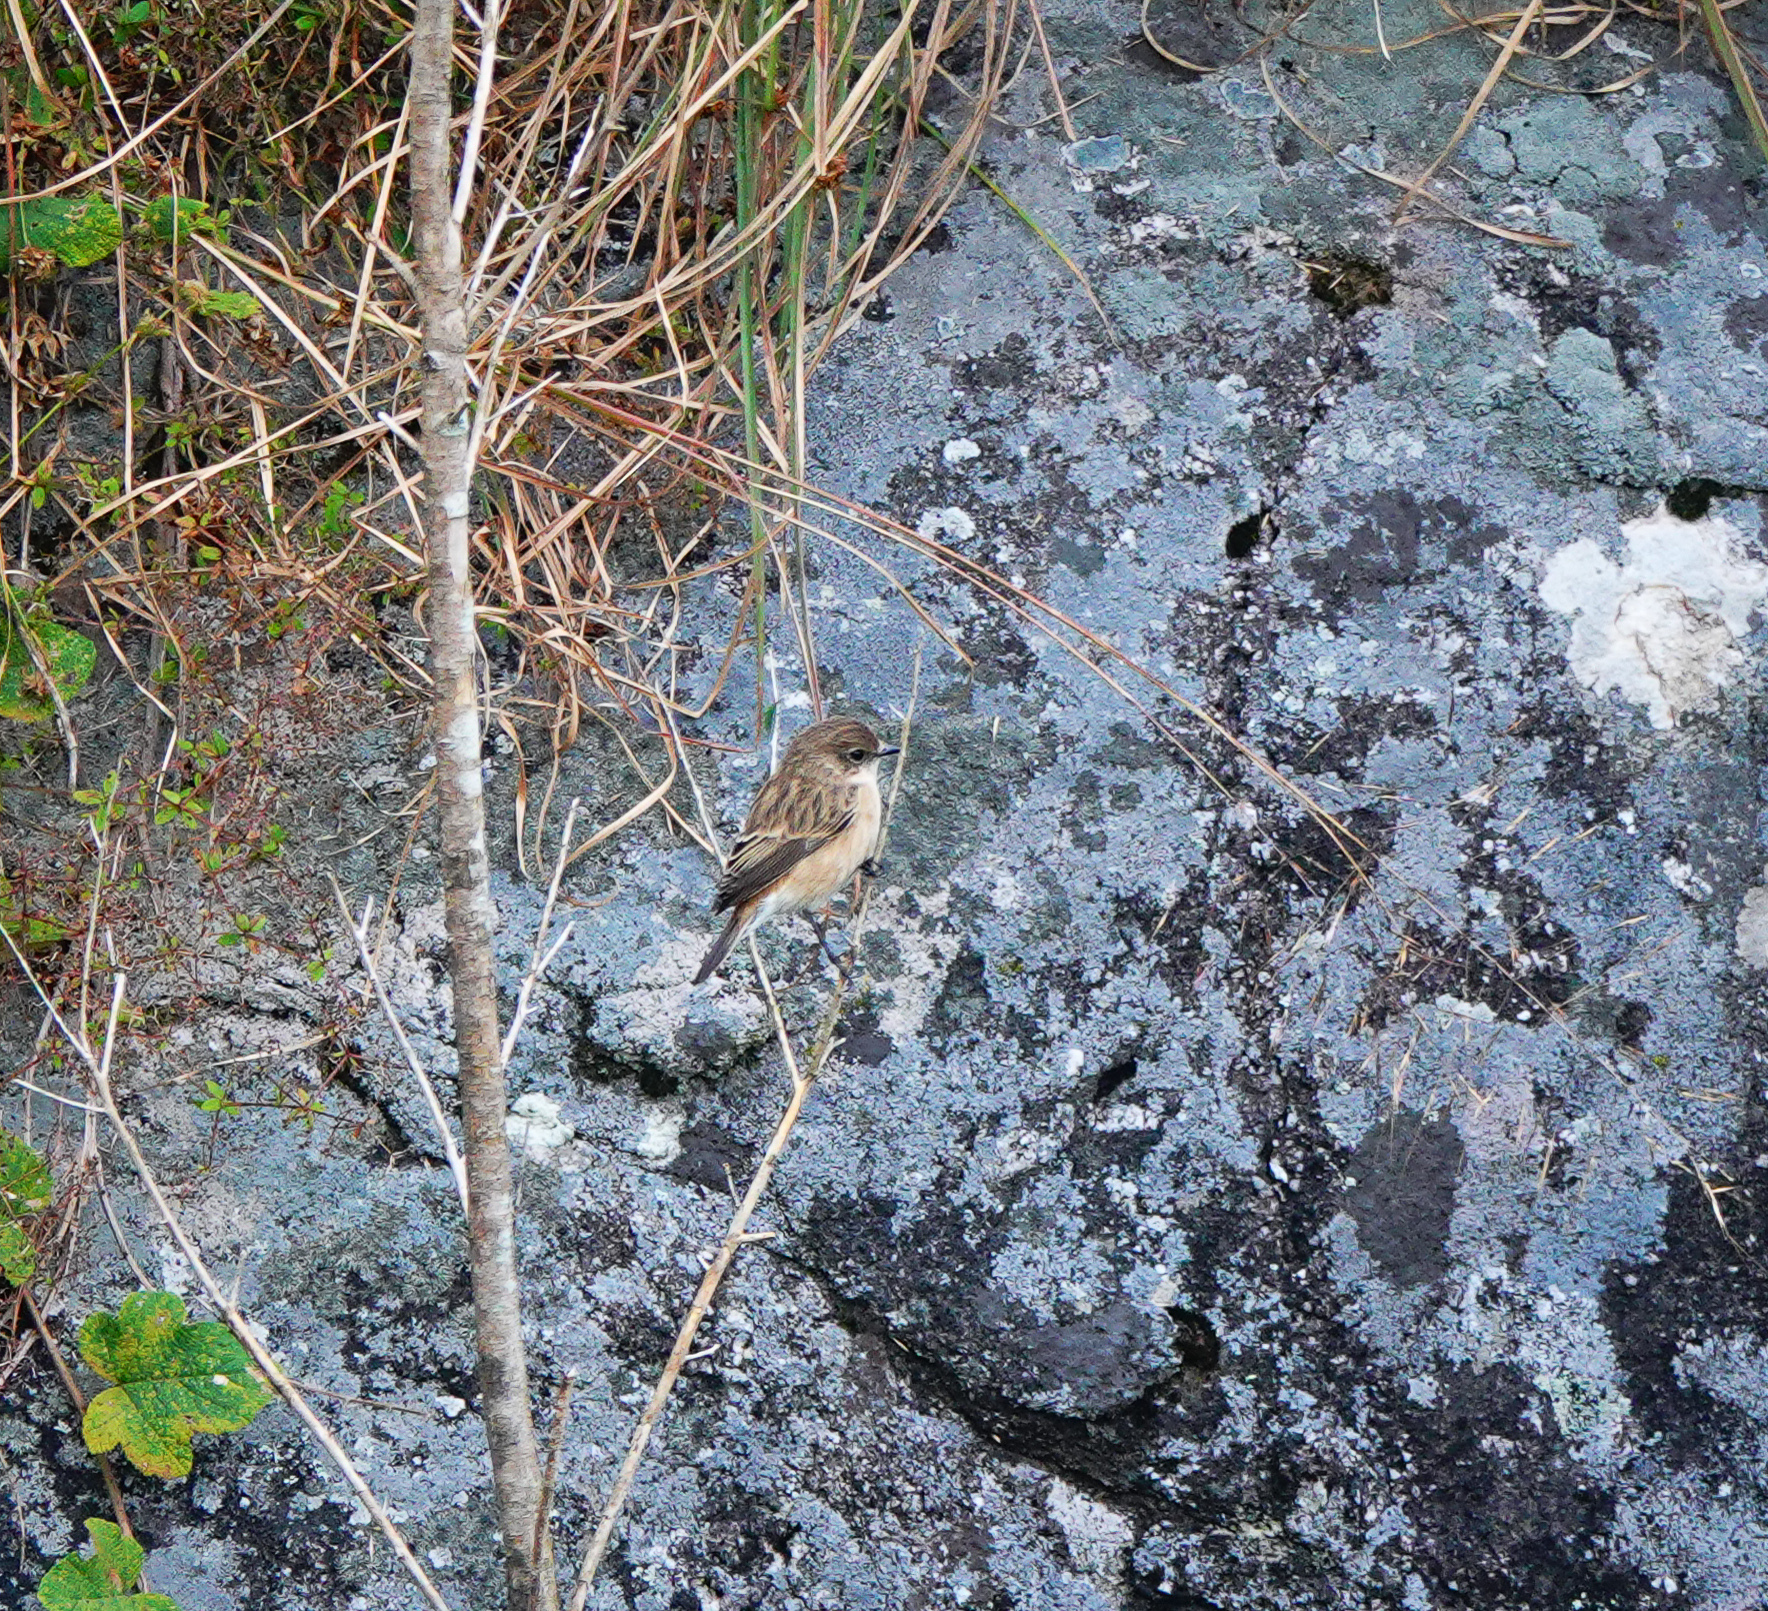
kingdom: Animalia
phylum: Chordata
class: Aves
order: Passeriformes
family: Muscicapidae
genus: Saxicola
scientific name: Saxicola maurus
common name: Siberian stonechat
